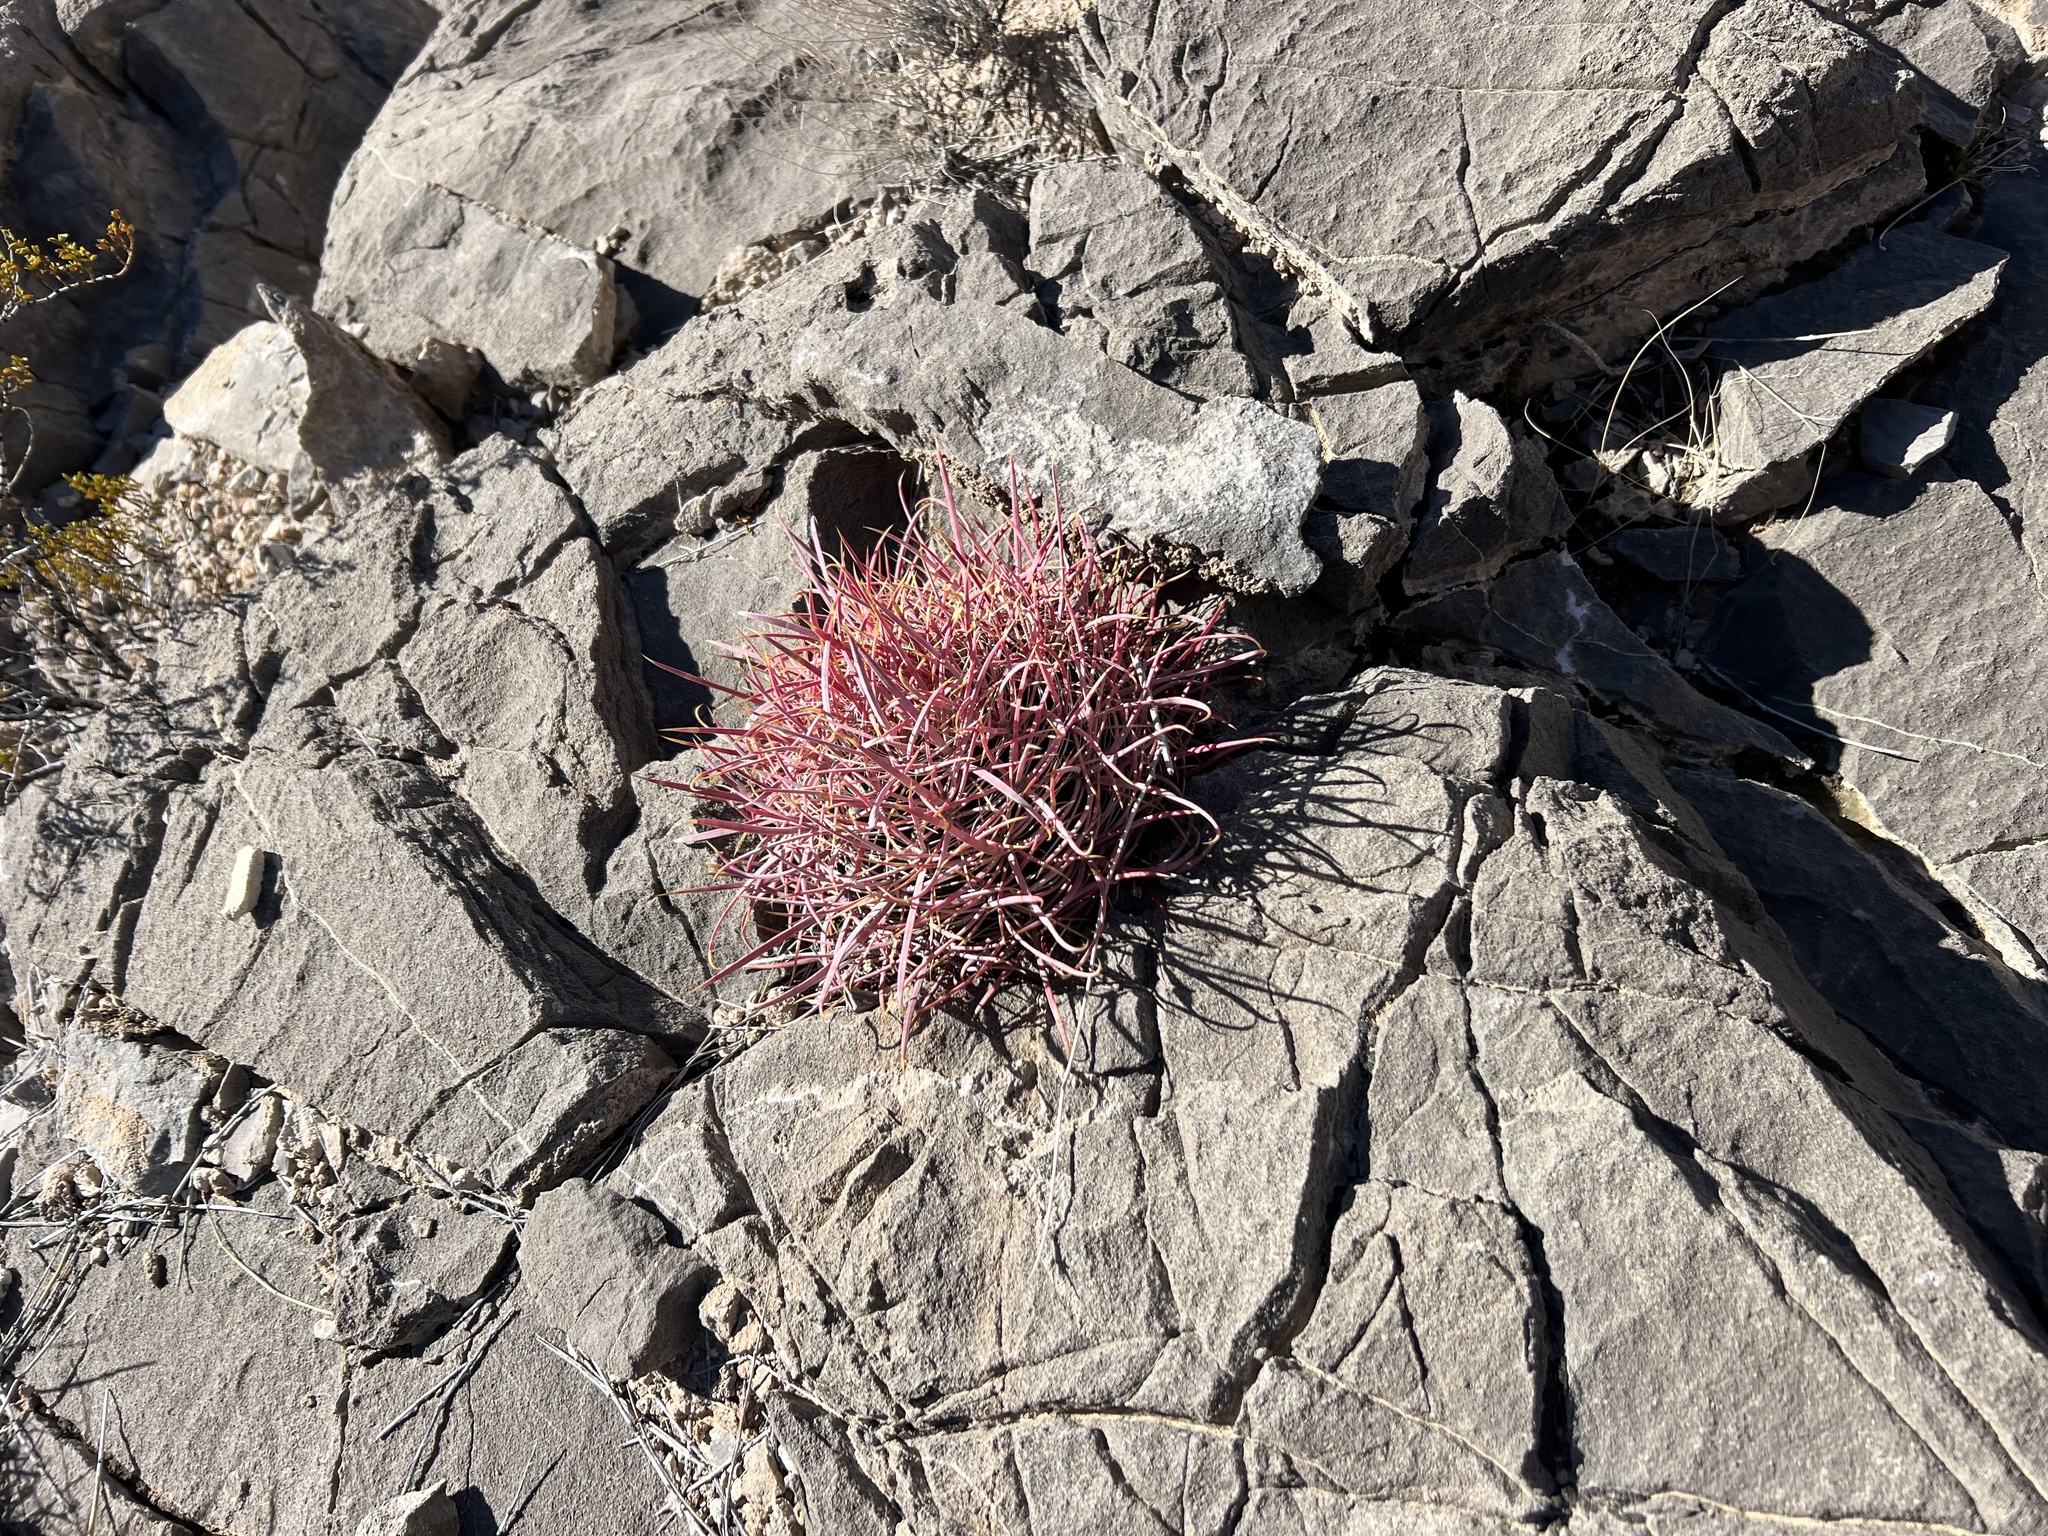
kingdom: Plantae
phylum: Tracheophyta
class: Magnoliopsida
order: Caryophyllales
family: Cactaceae
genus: Ferocactus
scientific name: Ferocactus cylindraceus
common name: California barrel cactus
